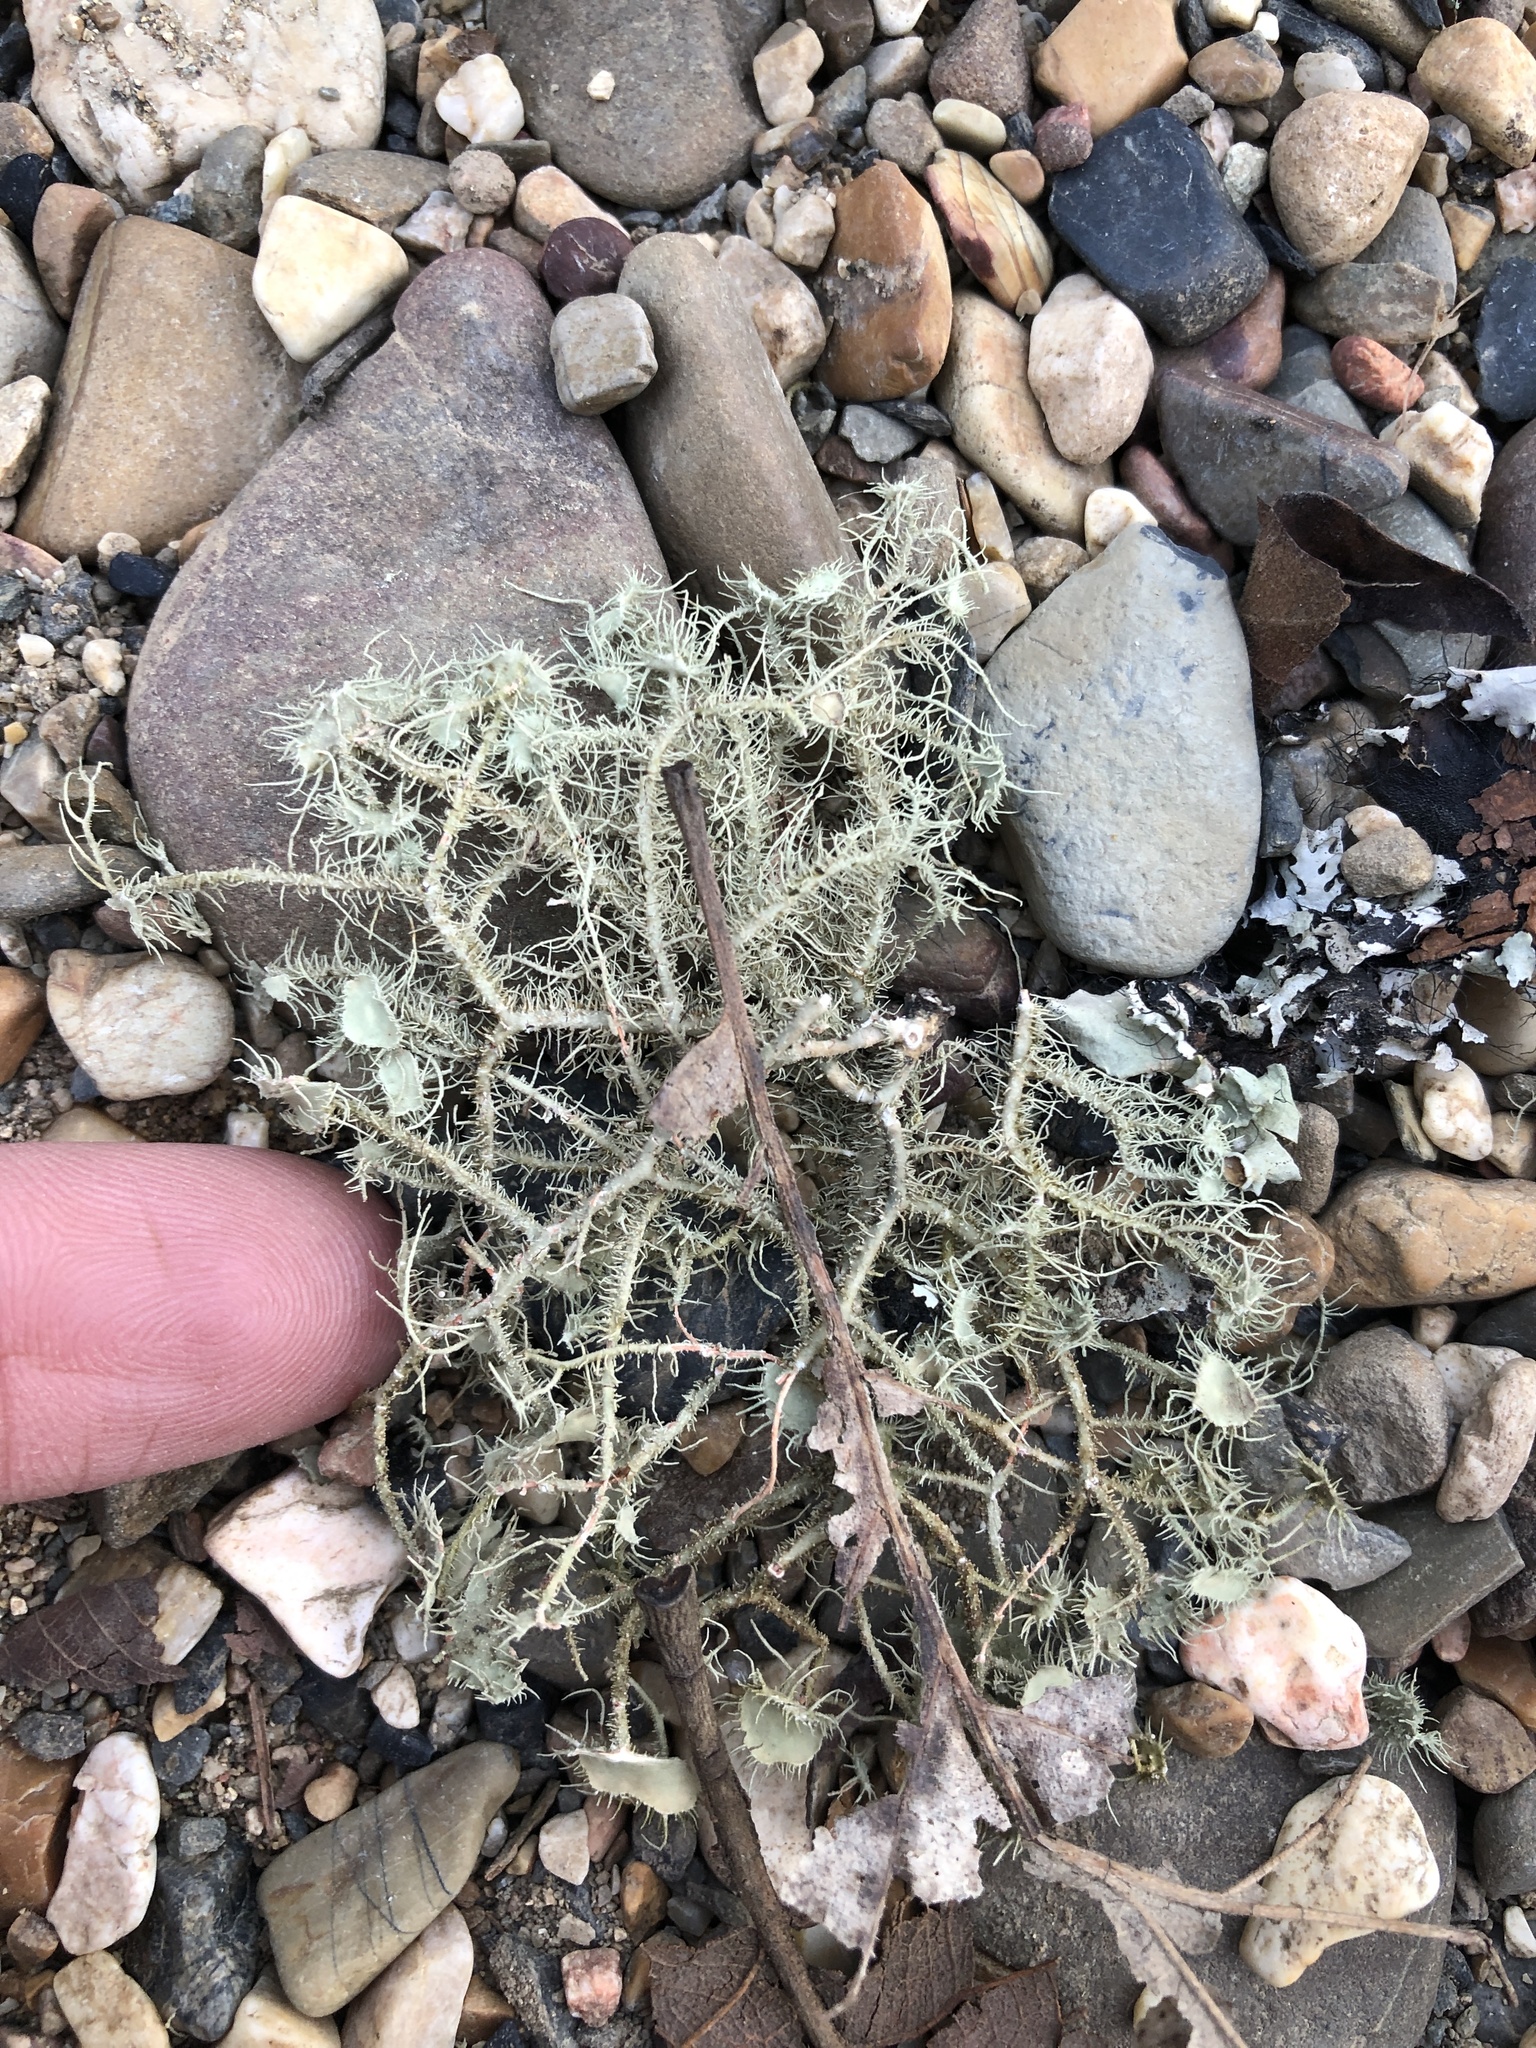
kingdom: Fungi
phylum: Ascomycota
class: Lecanoromycetes
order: Lecanorales
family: Parmeliaceae
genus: Usnea
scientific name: Usnea strigosa
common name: Bushy beard lichen
